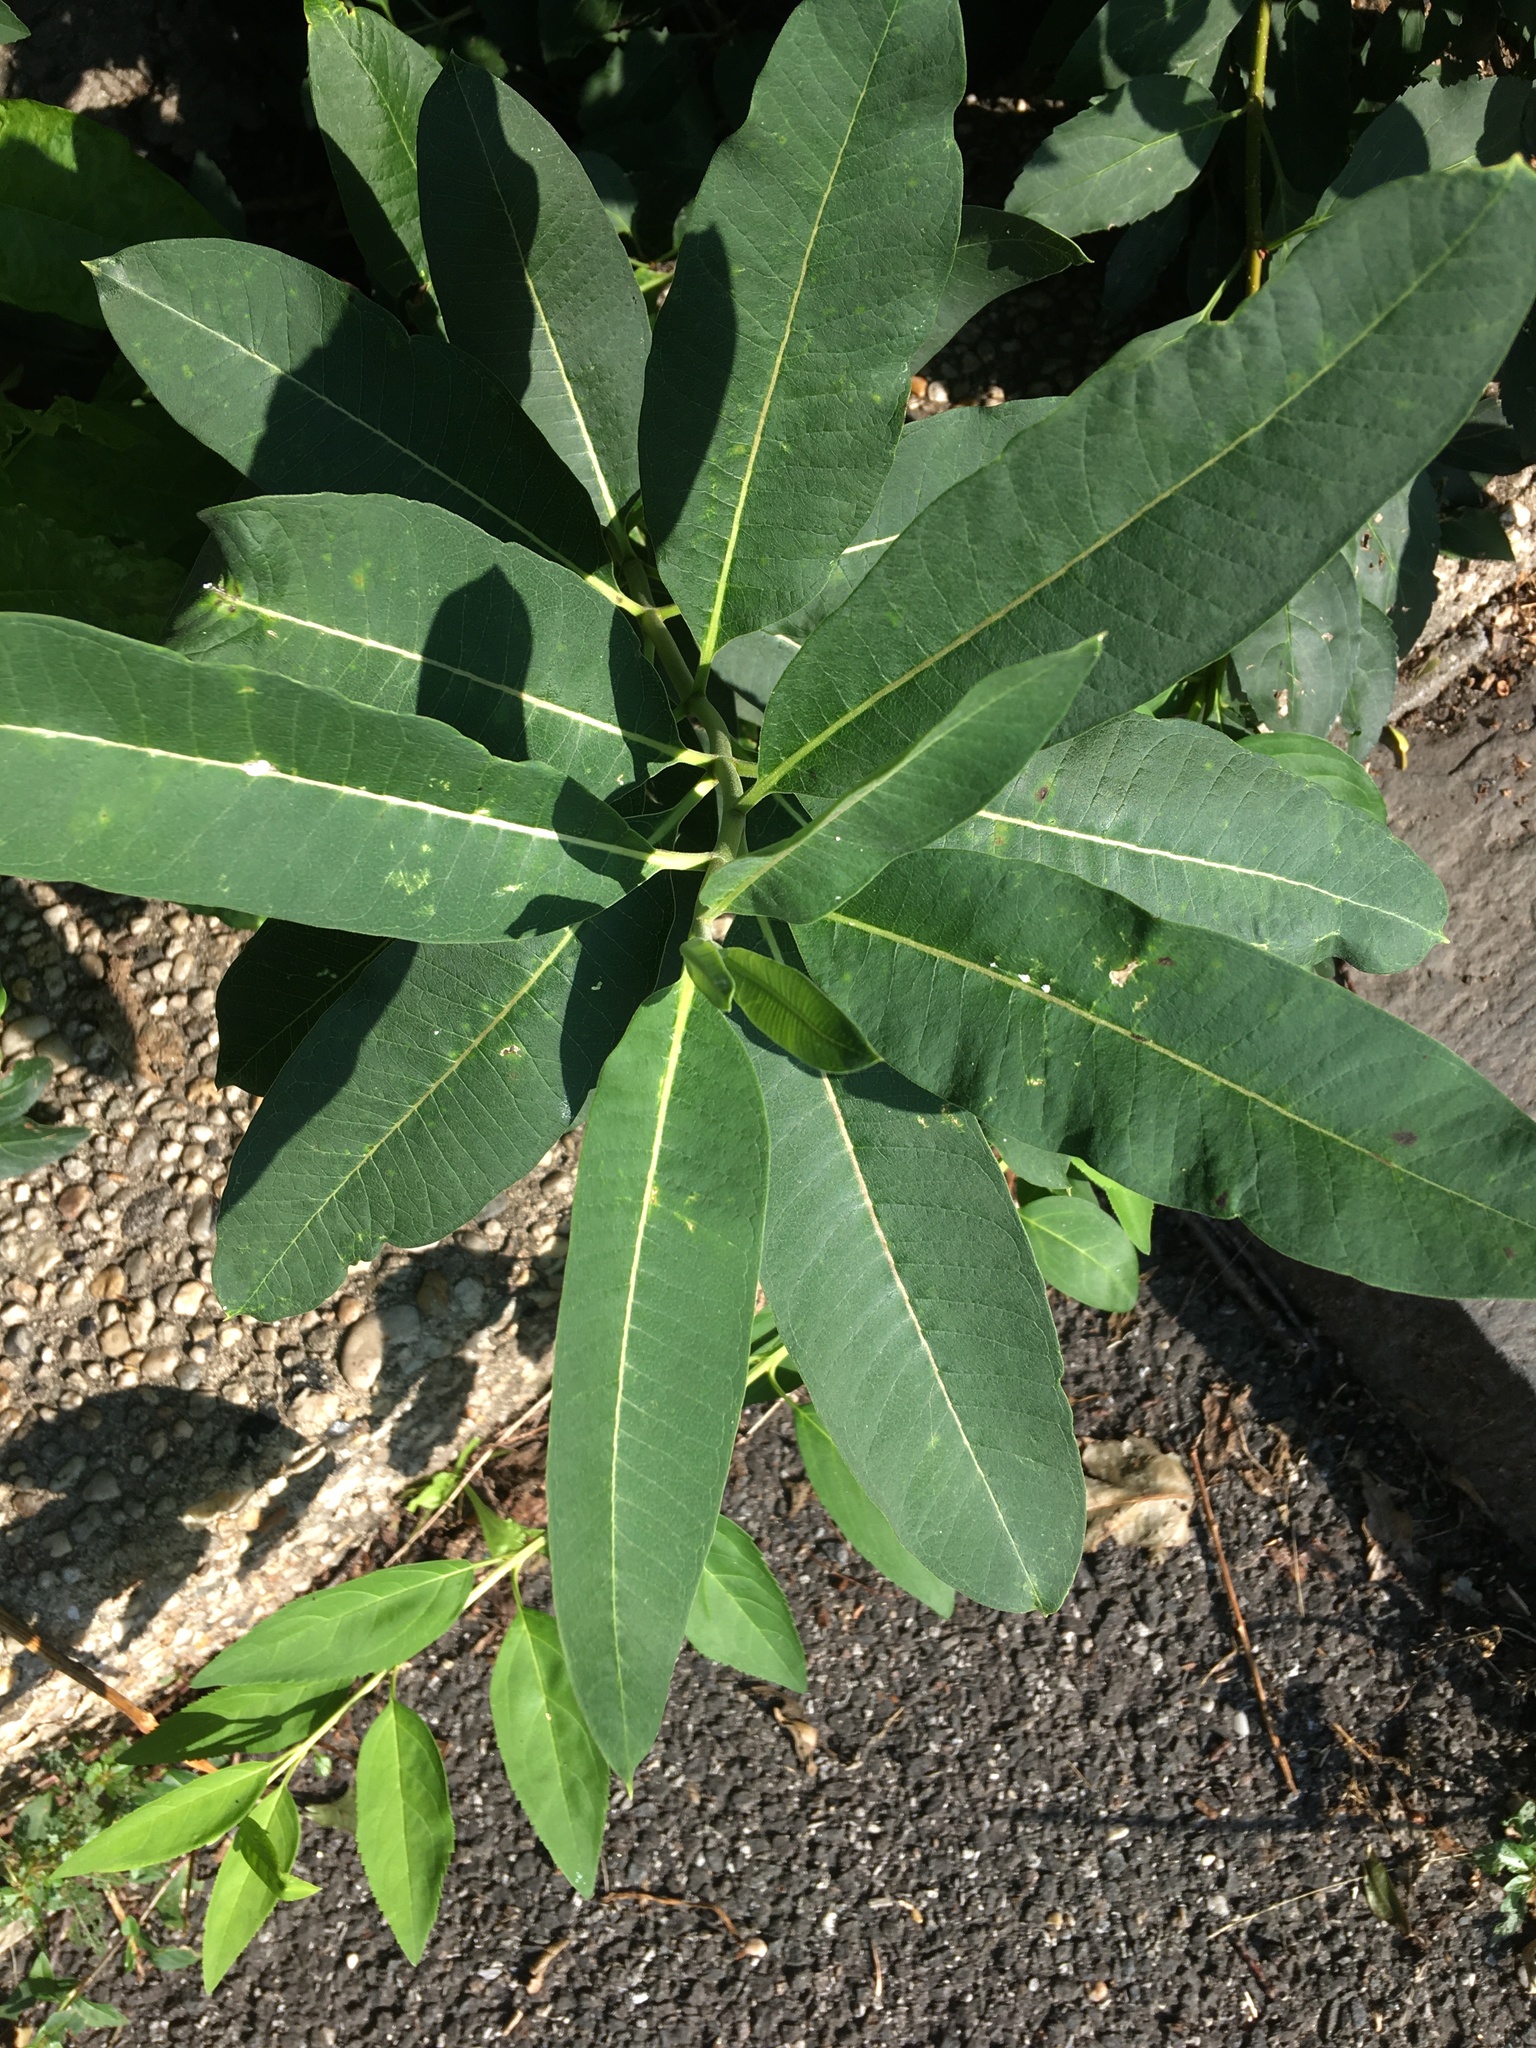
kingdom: Plantae
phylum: Tracheophyta
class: Magnoliopsida
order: Gentianales
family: Apocynaceae
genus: Asclepias
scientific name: Asclepias syriaca
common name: Common milkweed
